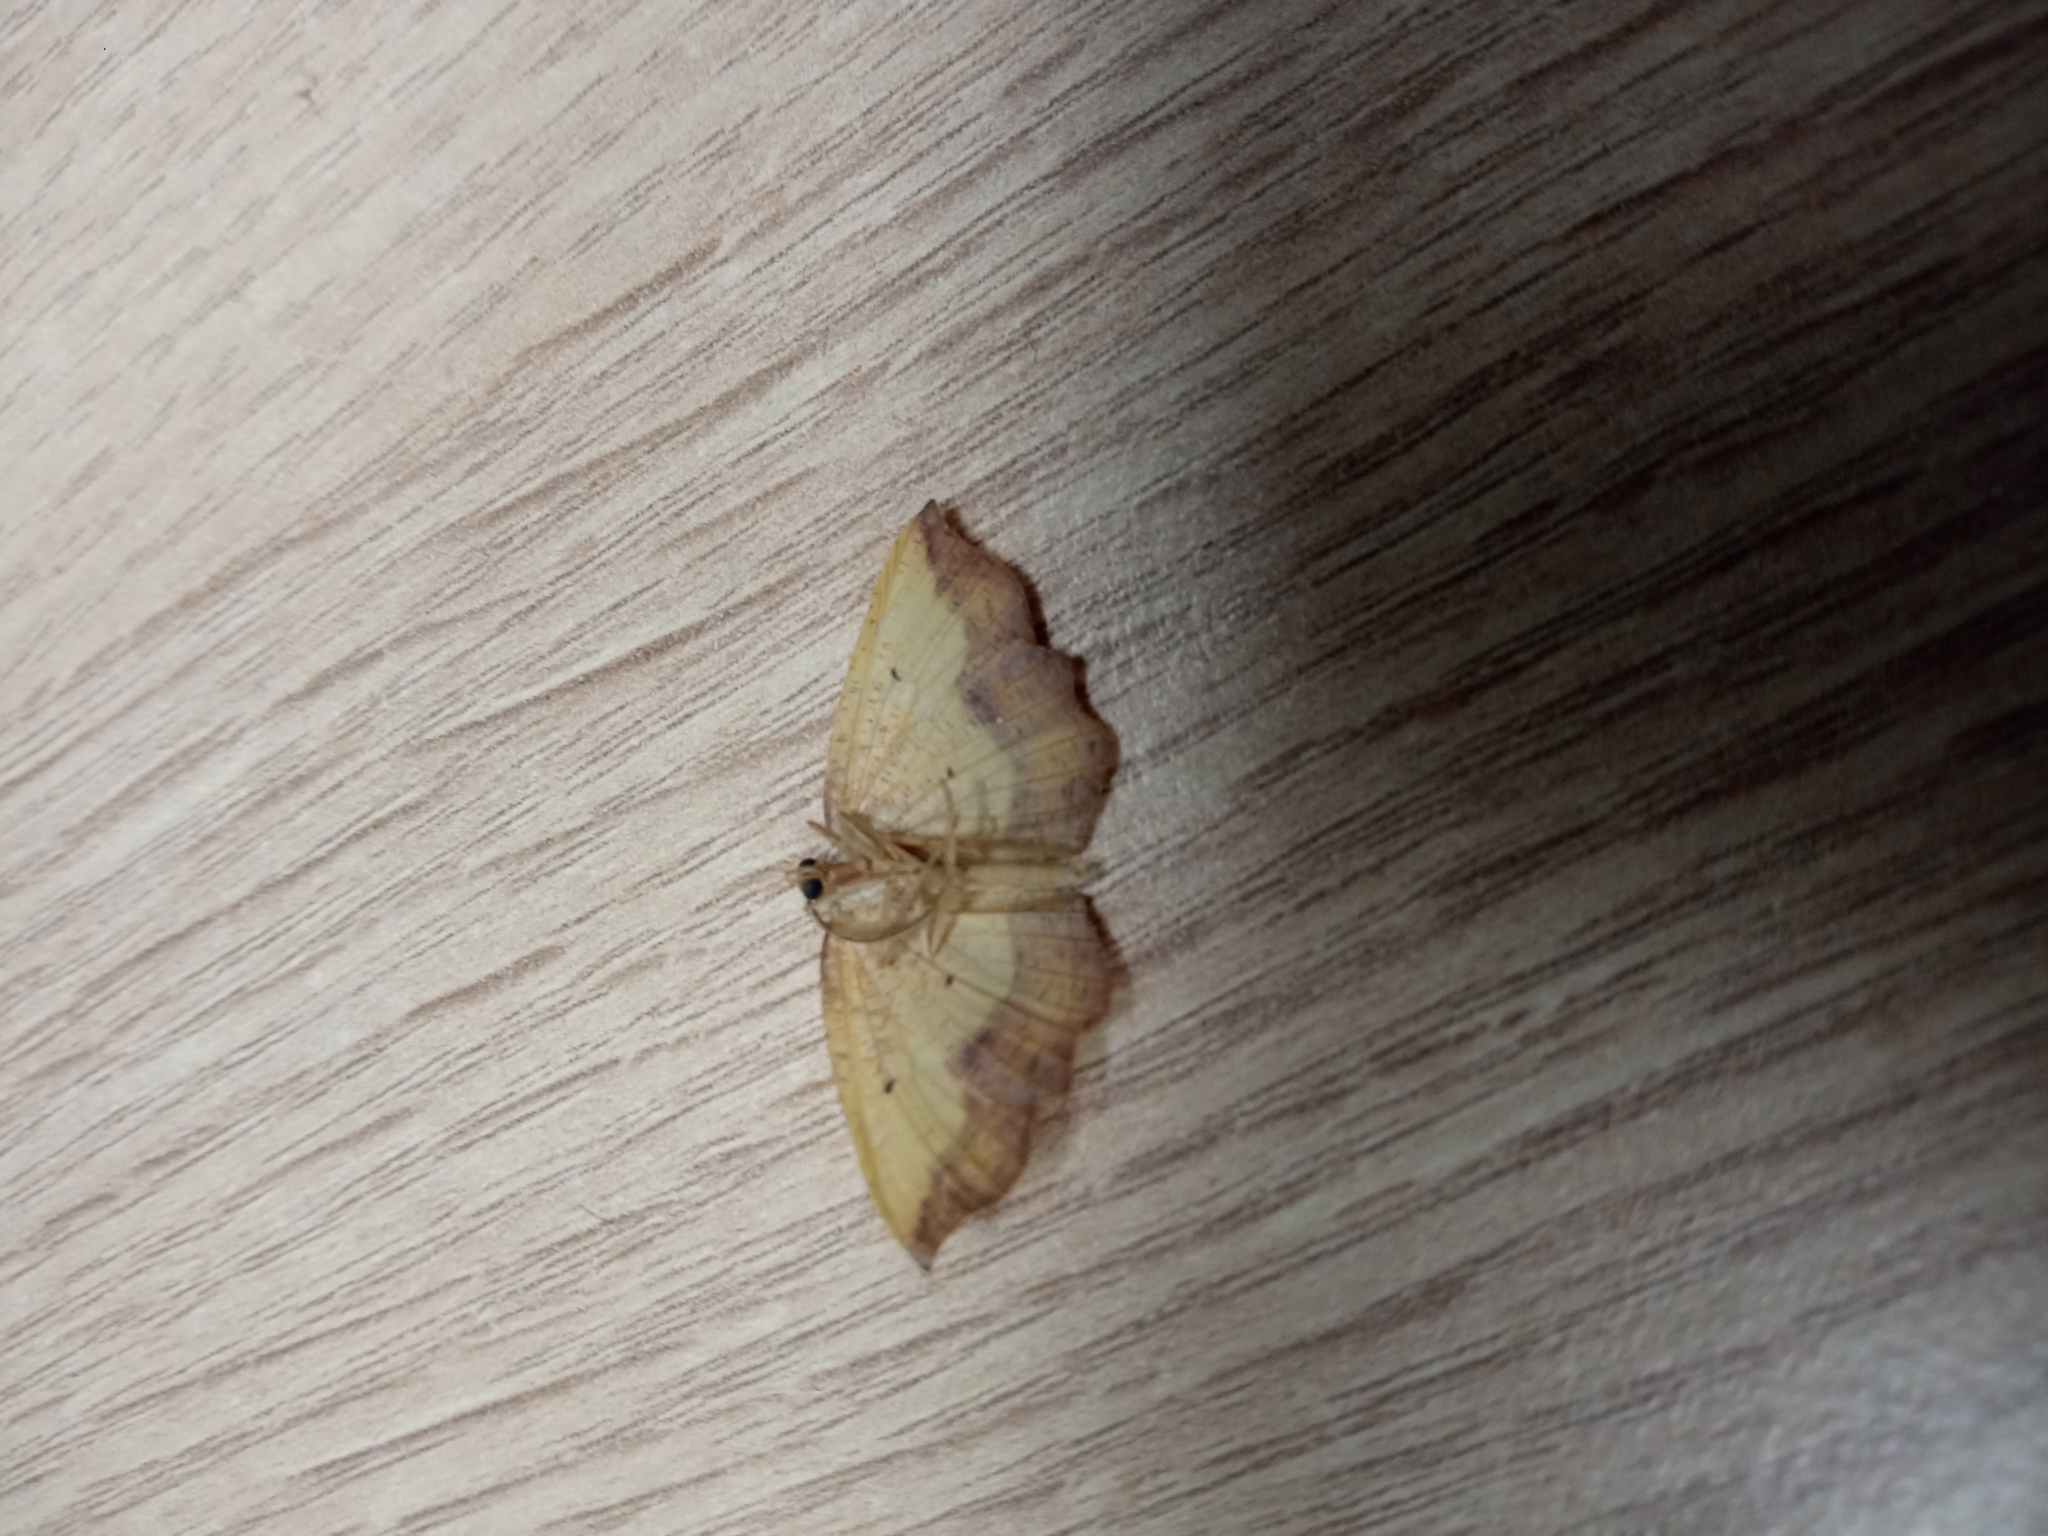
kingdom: Animalia
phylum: Arthropoda
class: Insecta
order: Lepidoptera
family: Geometridae
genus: Epione
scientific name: Epione repandaria
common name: Bordered beauty
